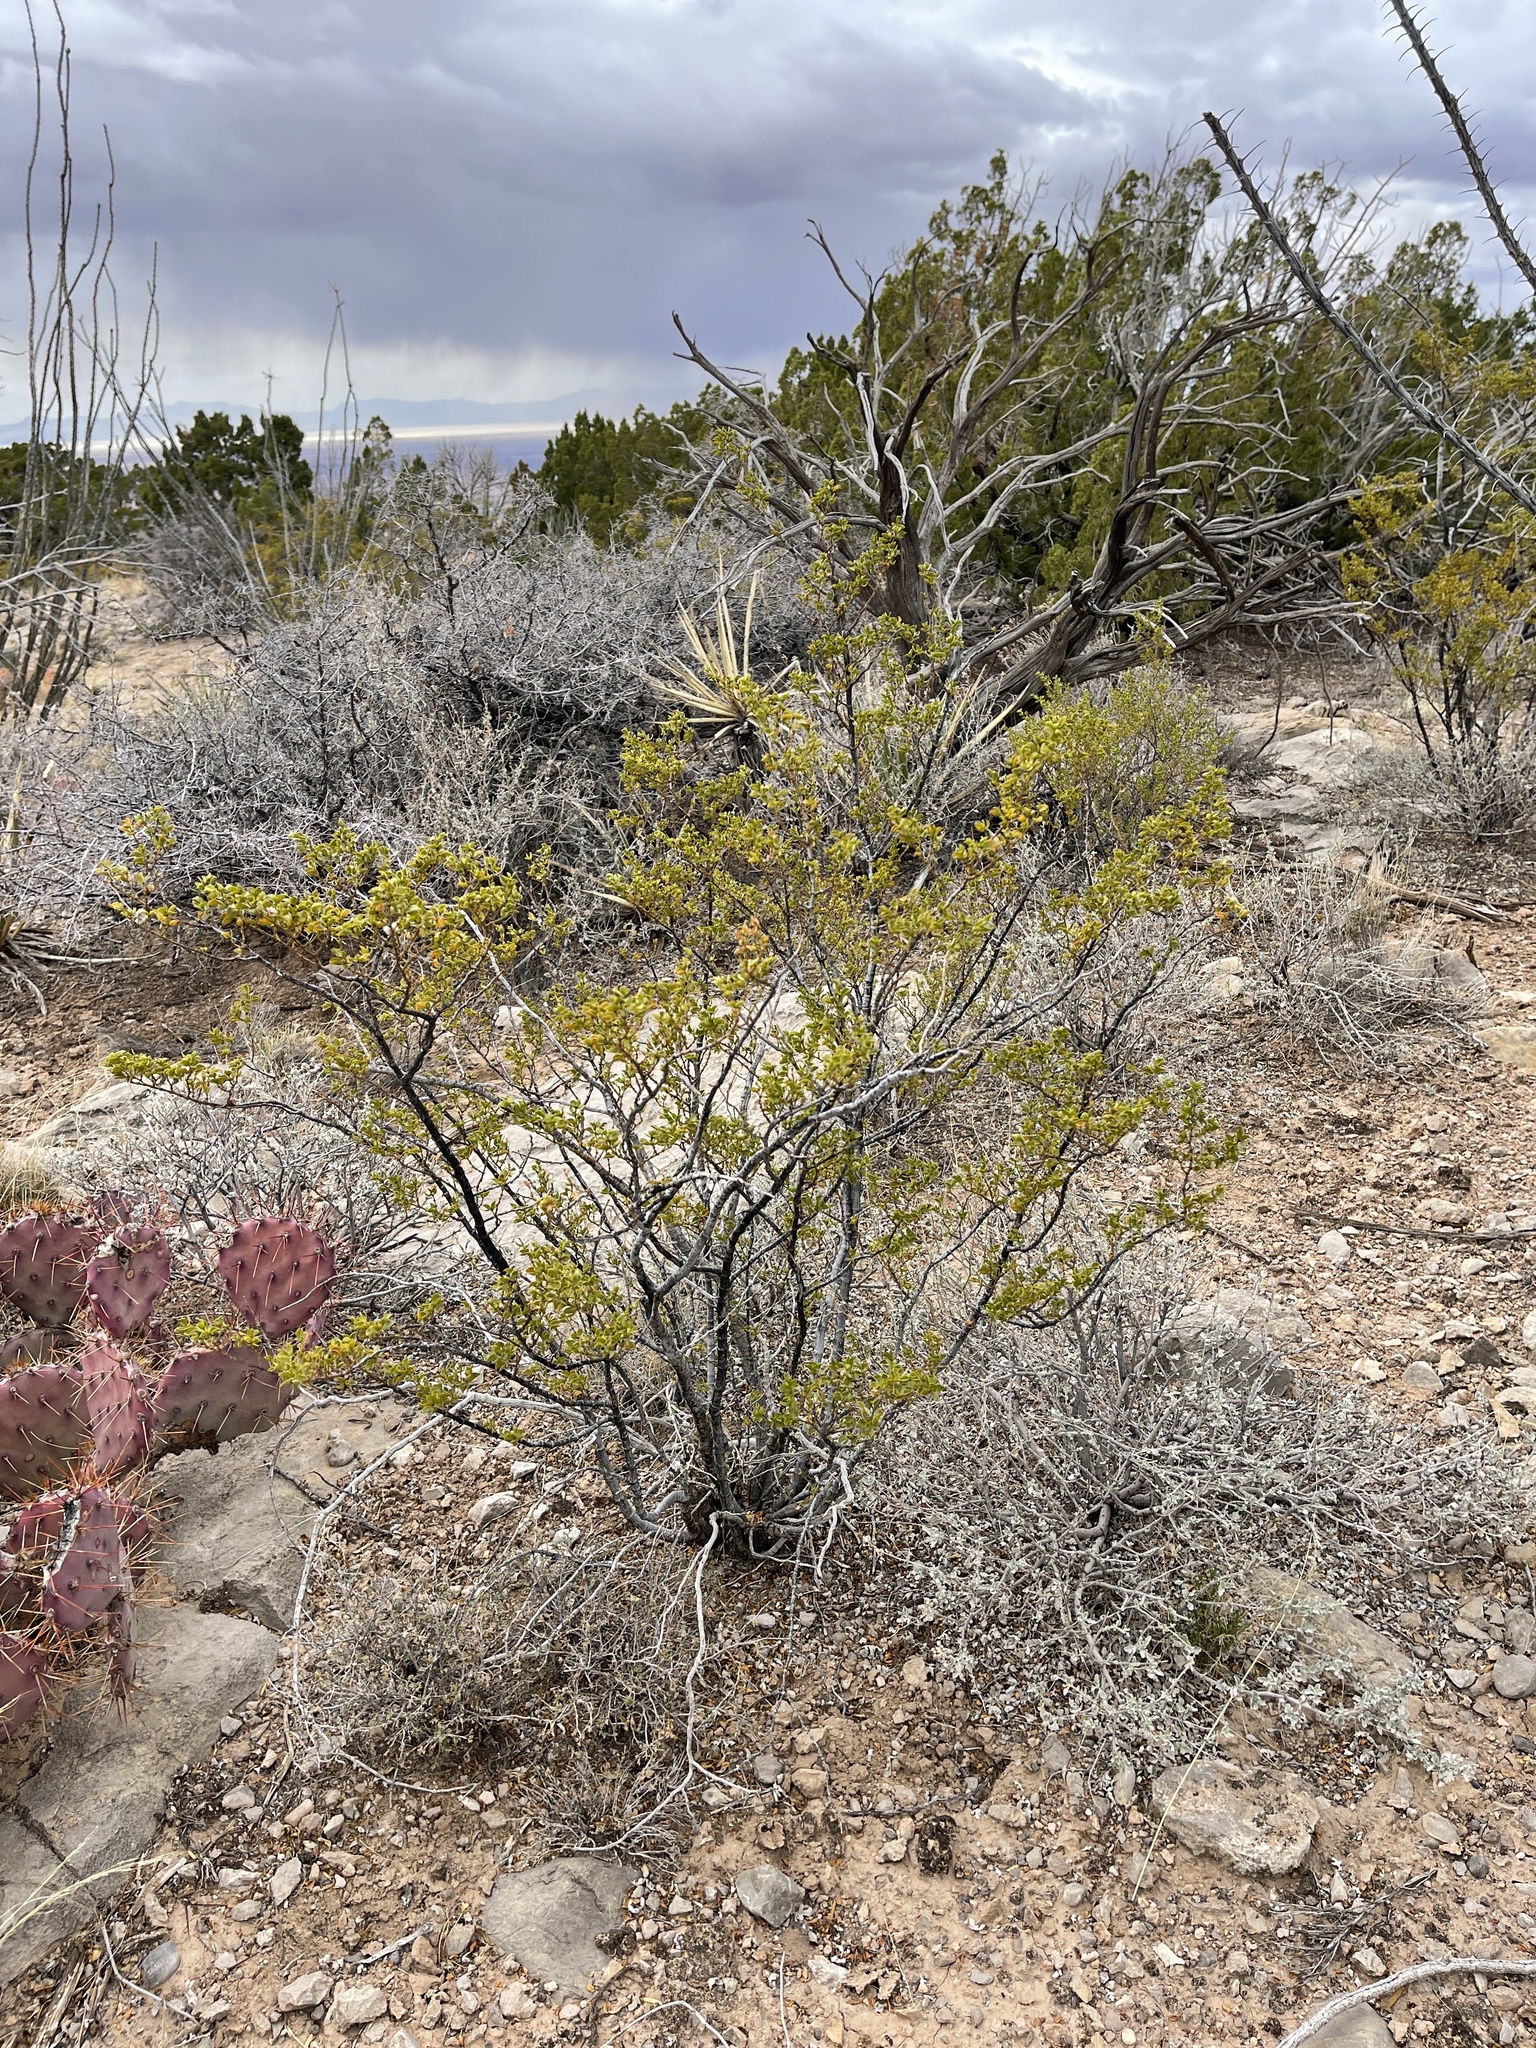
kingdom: Plantae
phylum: Tracheophyta
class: Magnoliopsida
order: Zygophyllales
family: Zygophyllaceae
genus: Larrea
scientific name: Larrea tridentata
